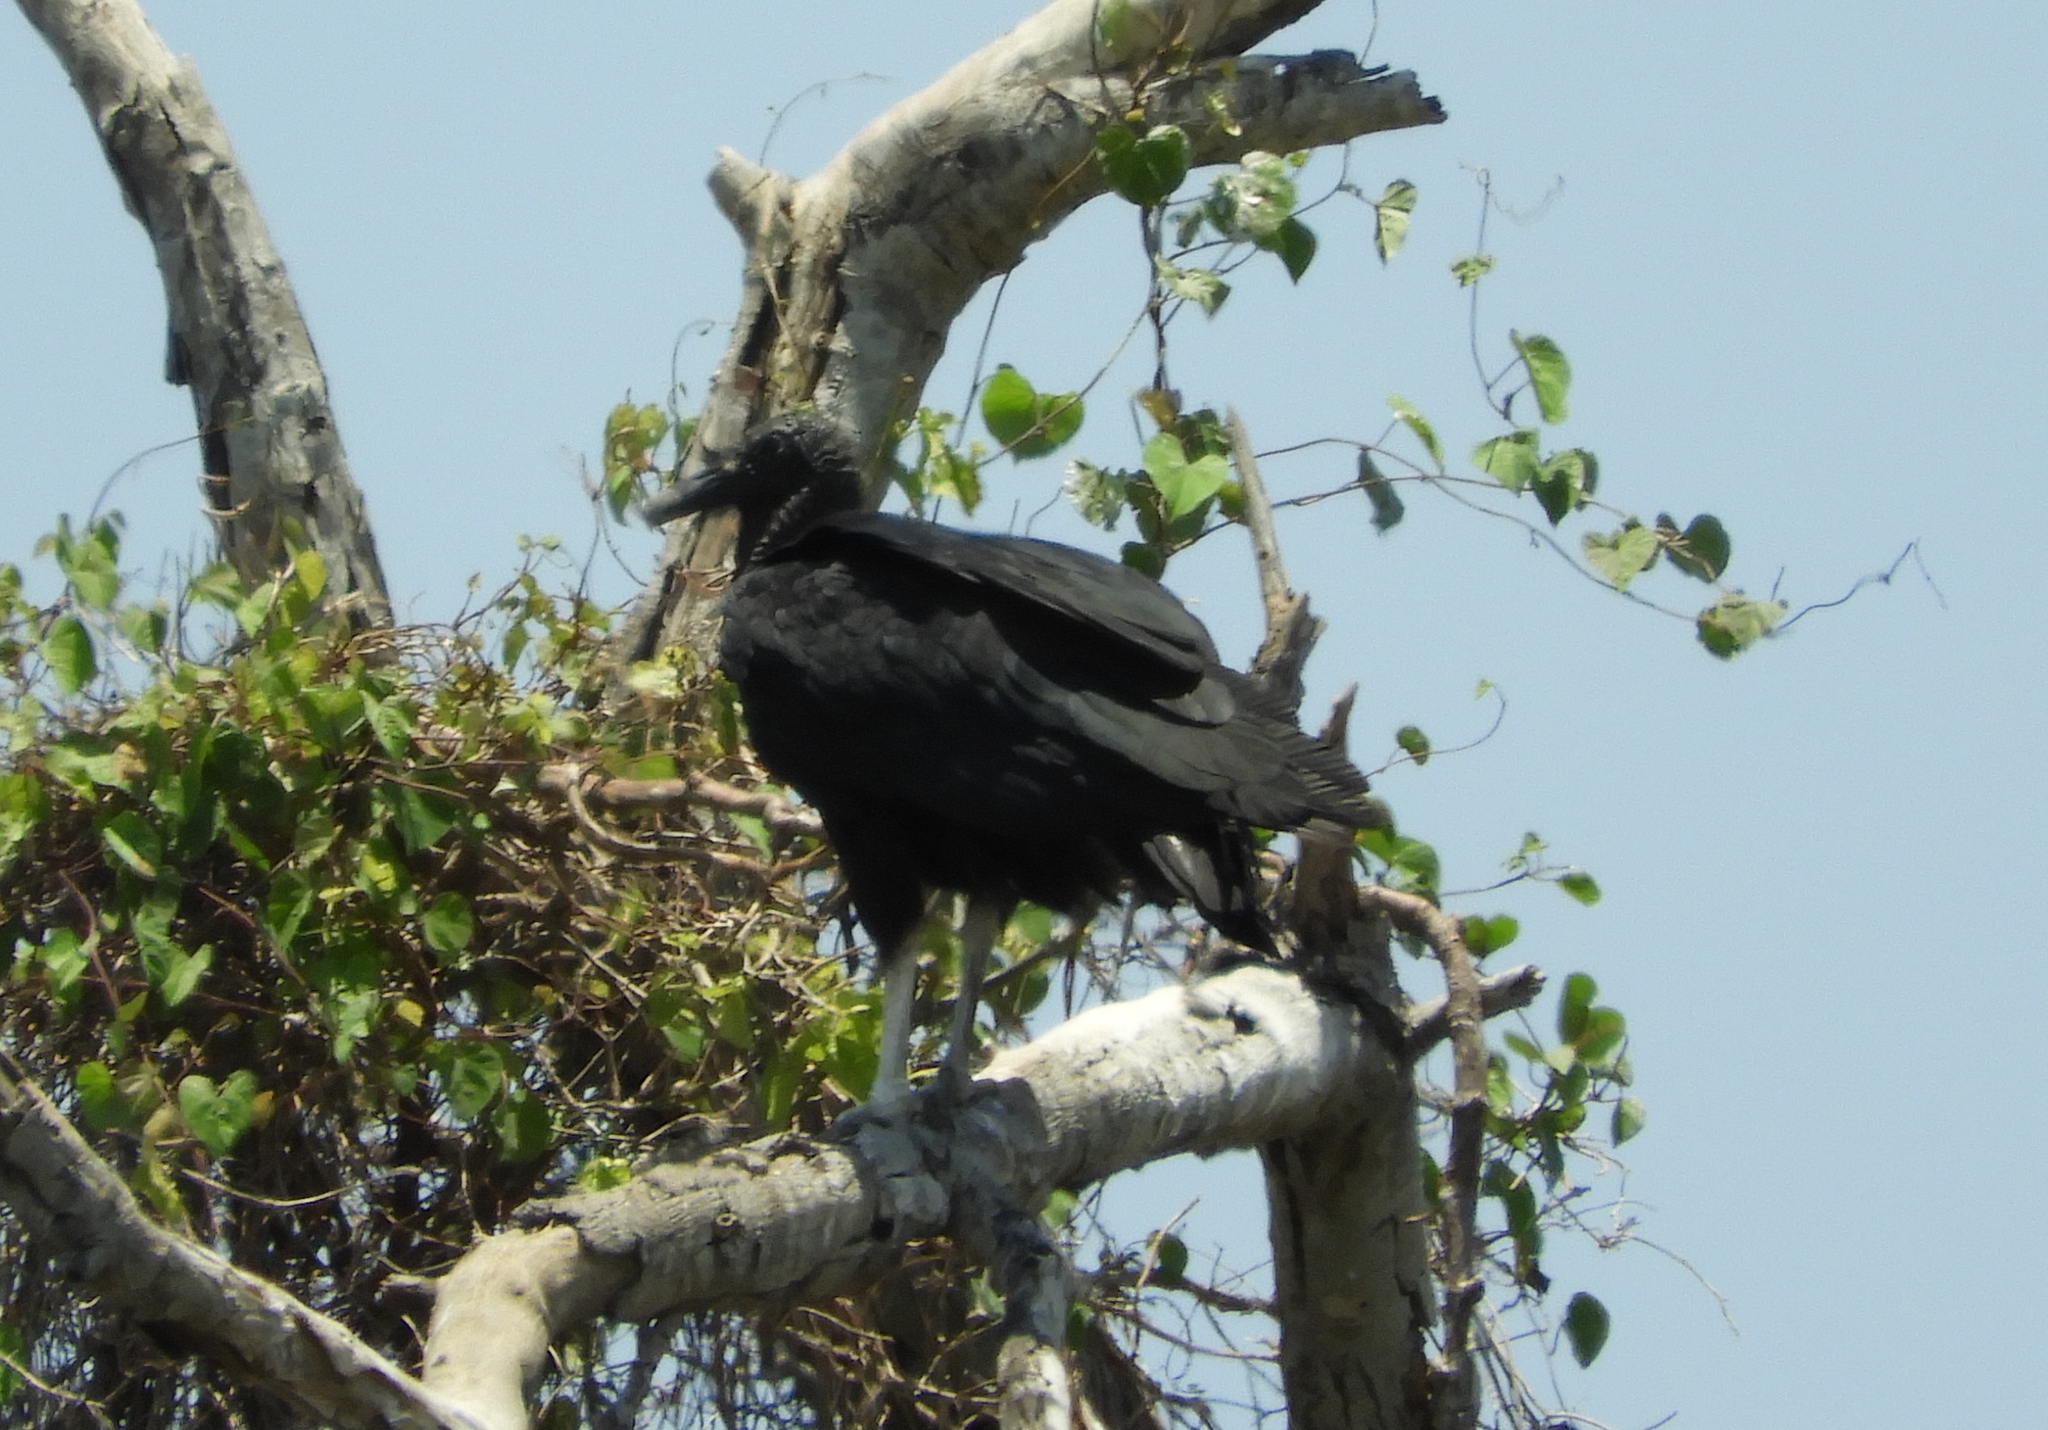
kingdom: Animalia
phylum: Chordata
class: Aves
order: Accipitriformes
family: Cathartidae
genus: Coragyps
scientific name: Coragyps atratus
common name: Black vulture
